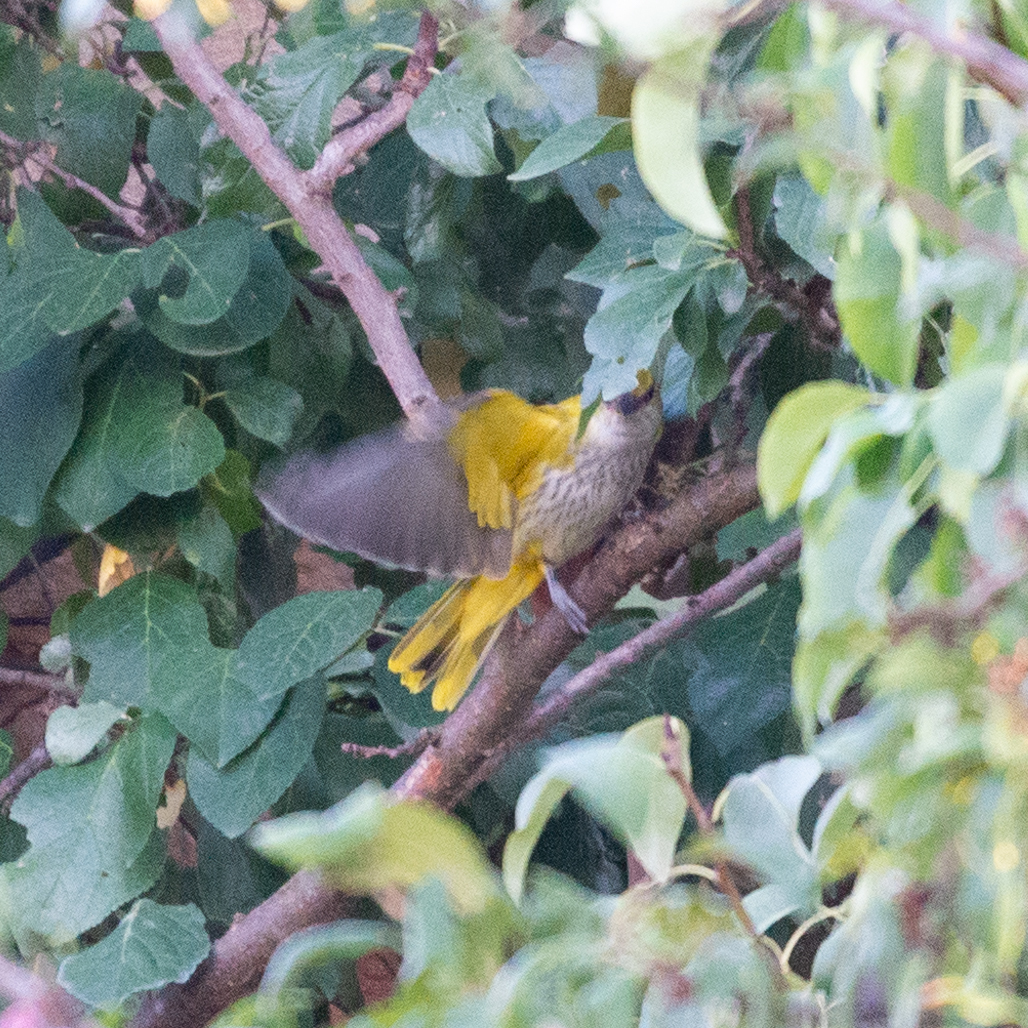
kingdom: Animalia
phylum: Chordata
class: Aves
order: Passeriformes
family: Oriolidae
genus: Oriolus
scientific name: Oriolus oriolus
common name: Eurasian golden oriole
